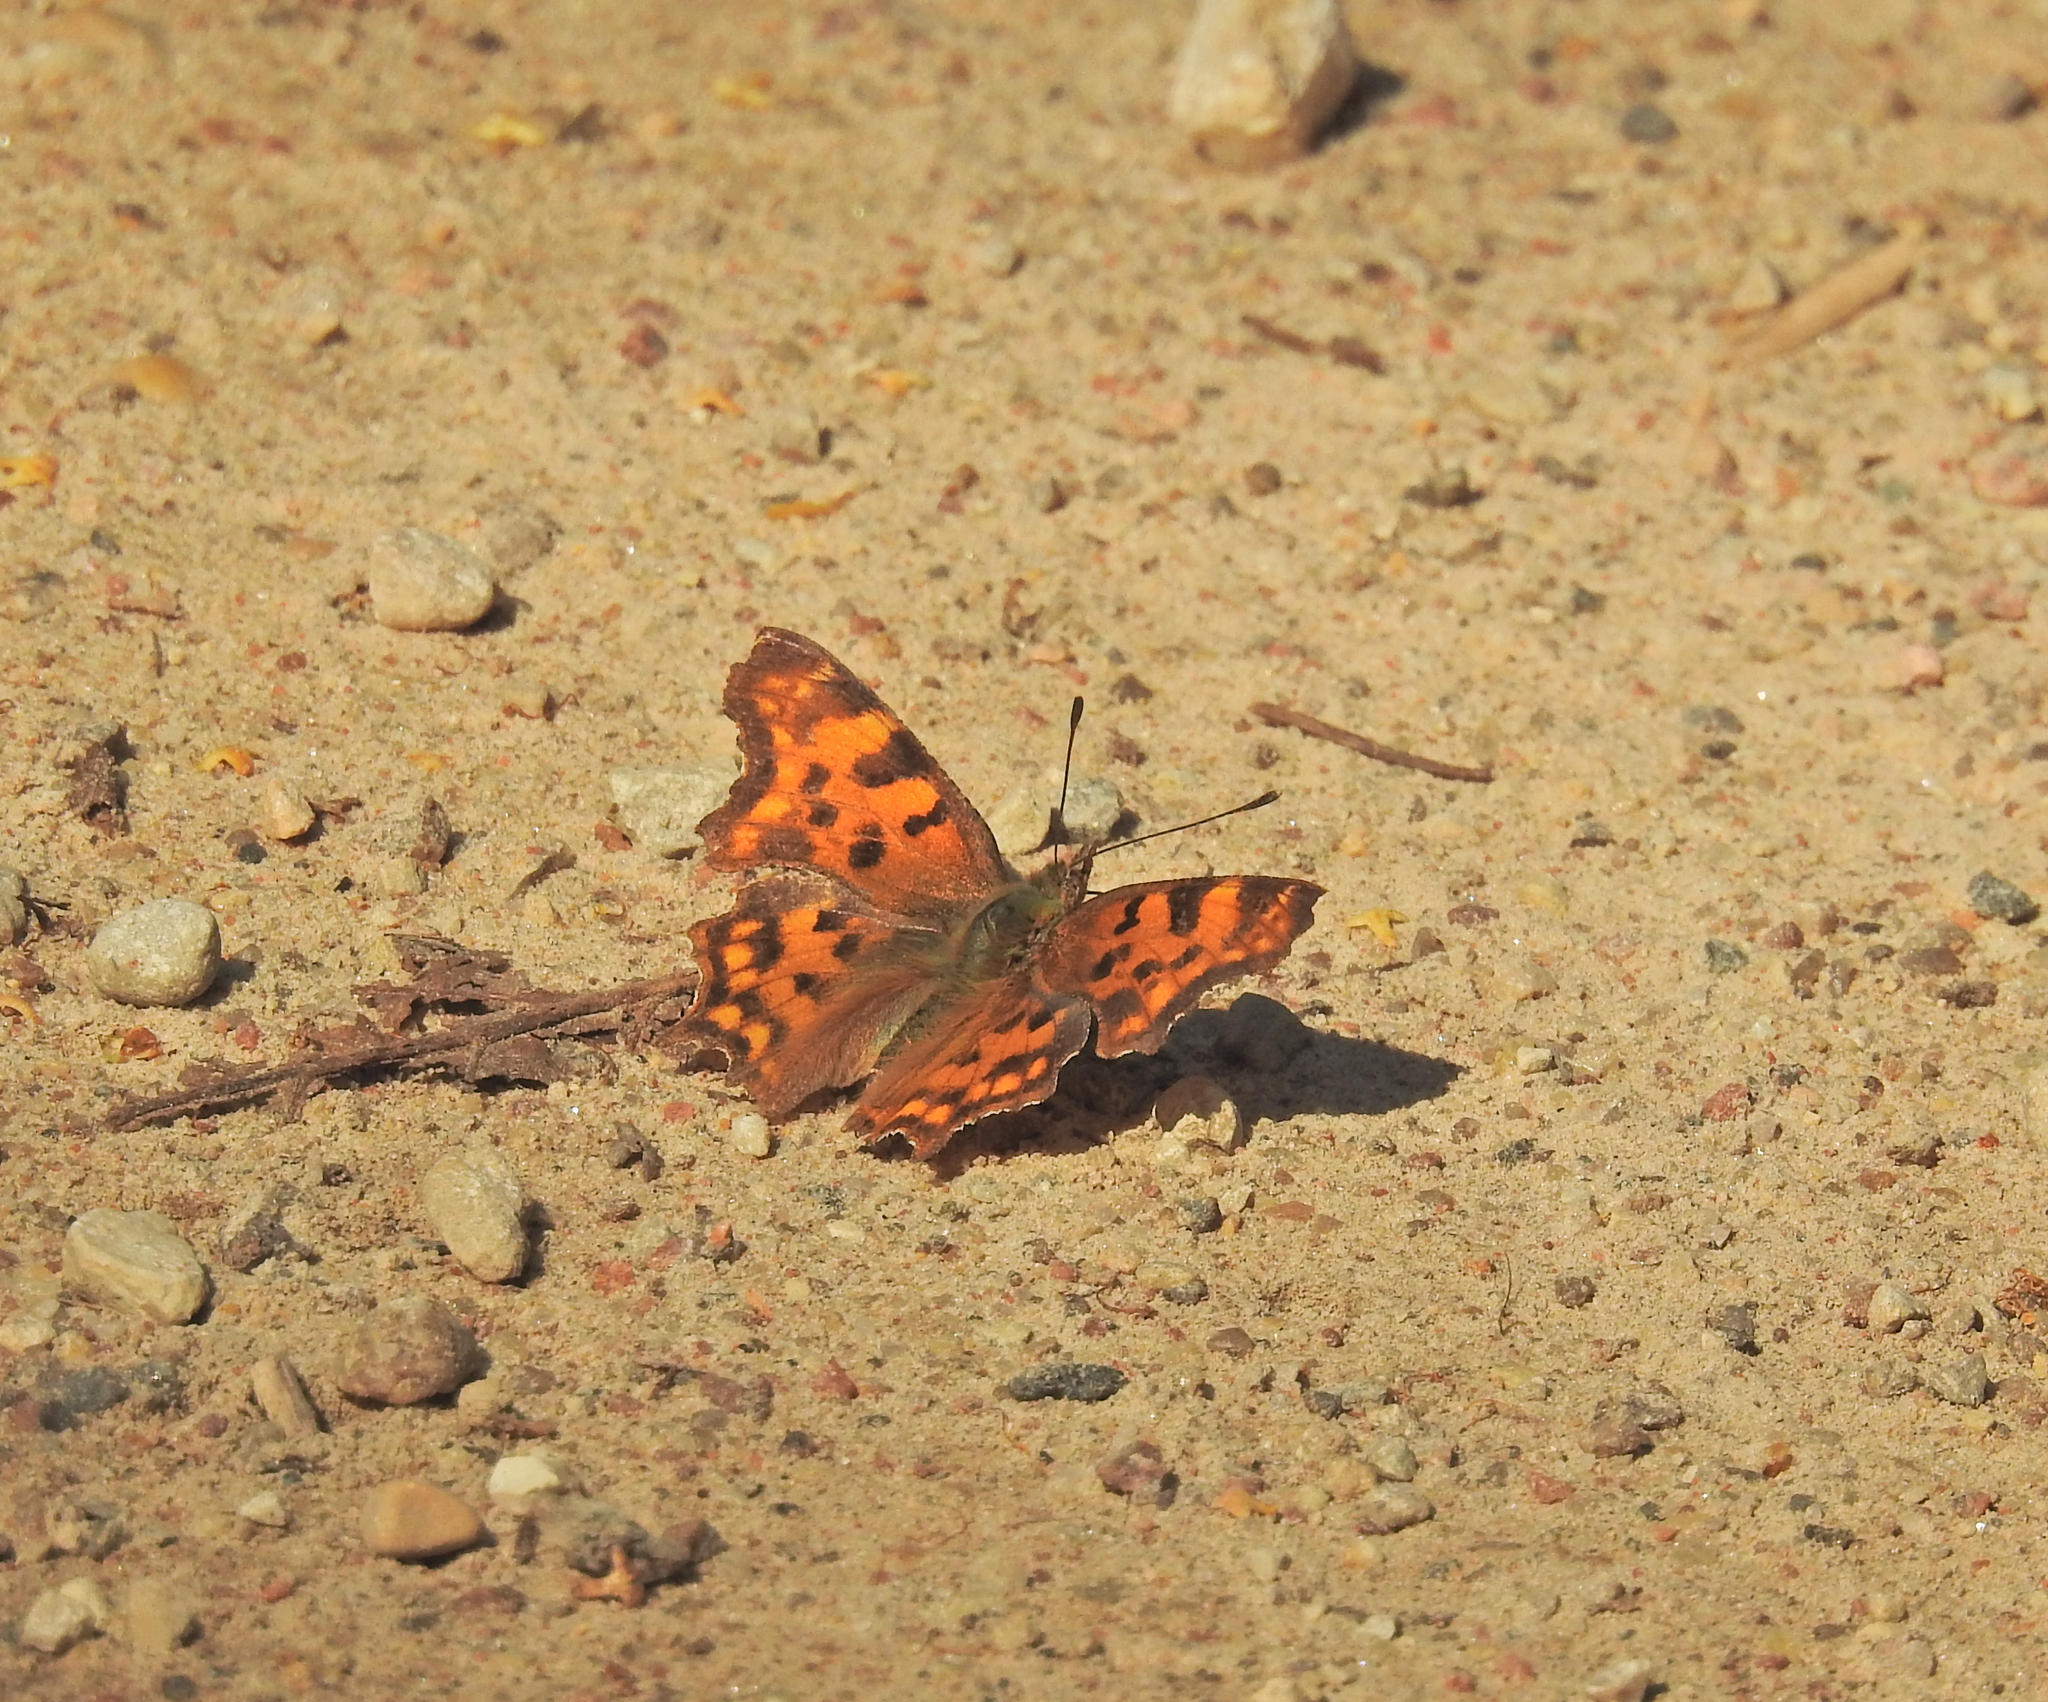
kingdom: Animalia
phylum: Arthropoda
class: Insecta
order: Lepidoptera
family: Nymphalidae
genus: Polygonia
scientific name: Polygonia c-album
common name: Comma
